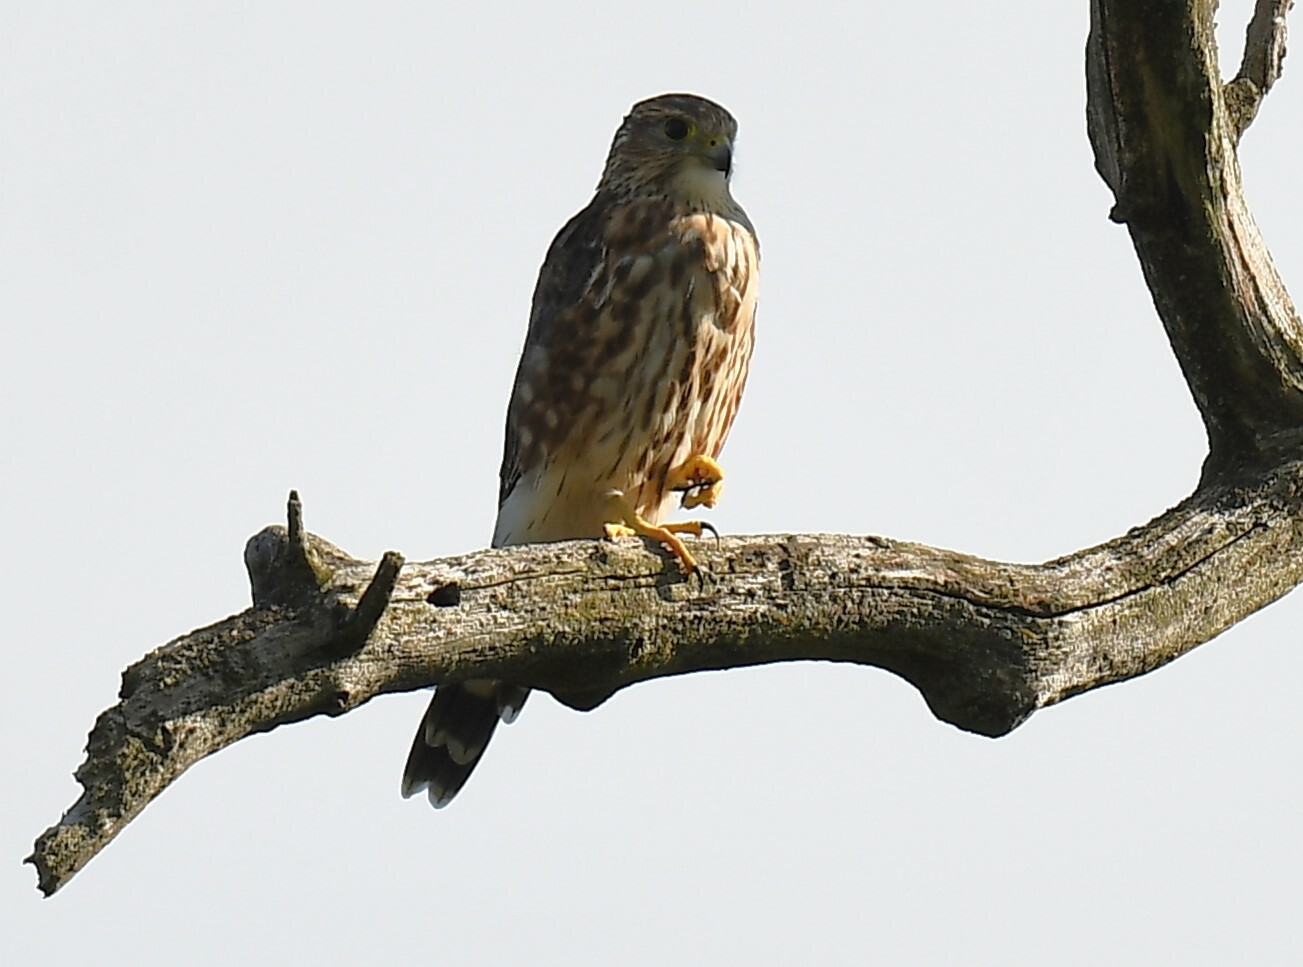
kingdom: Animalia
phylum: Chordata
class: Aves
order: Falconiformes
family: Falconidae
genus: Falco
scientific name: Falco columbarius
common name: Merlin
